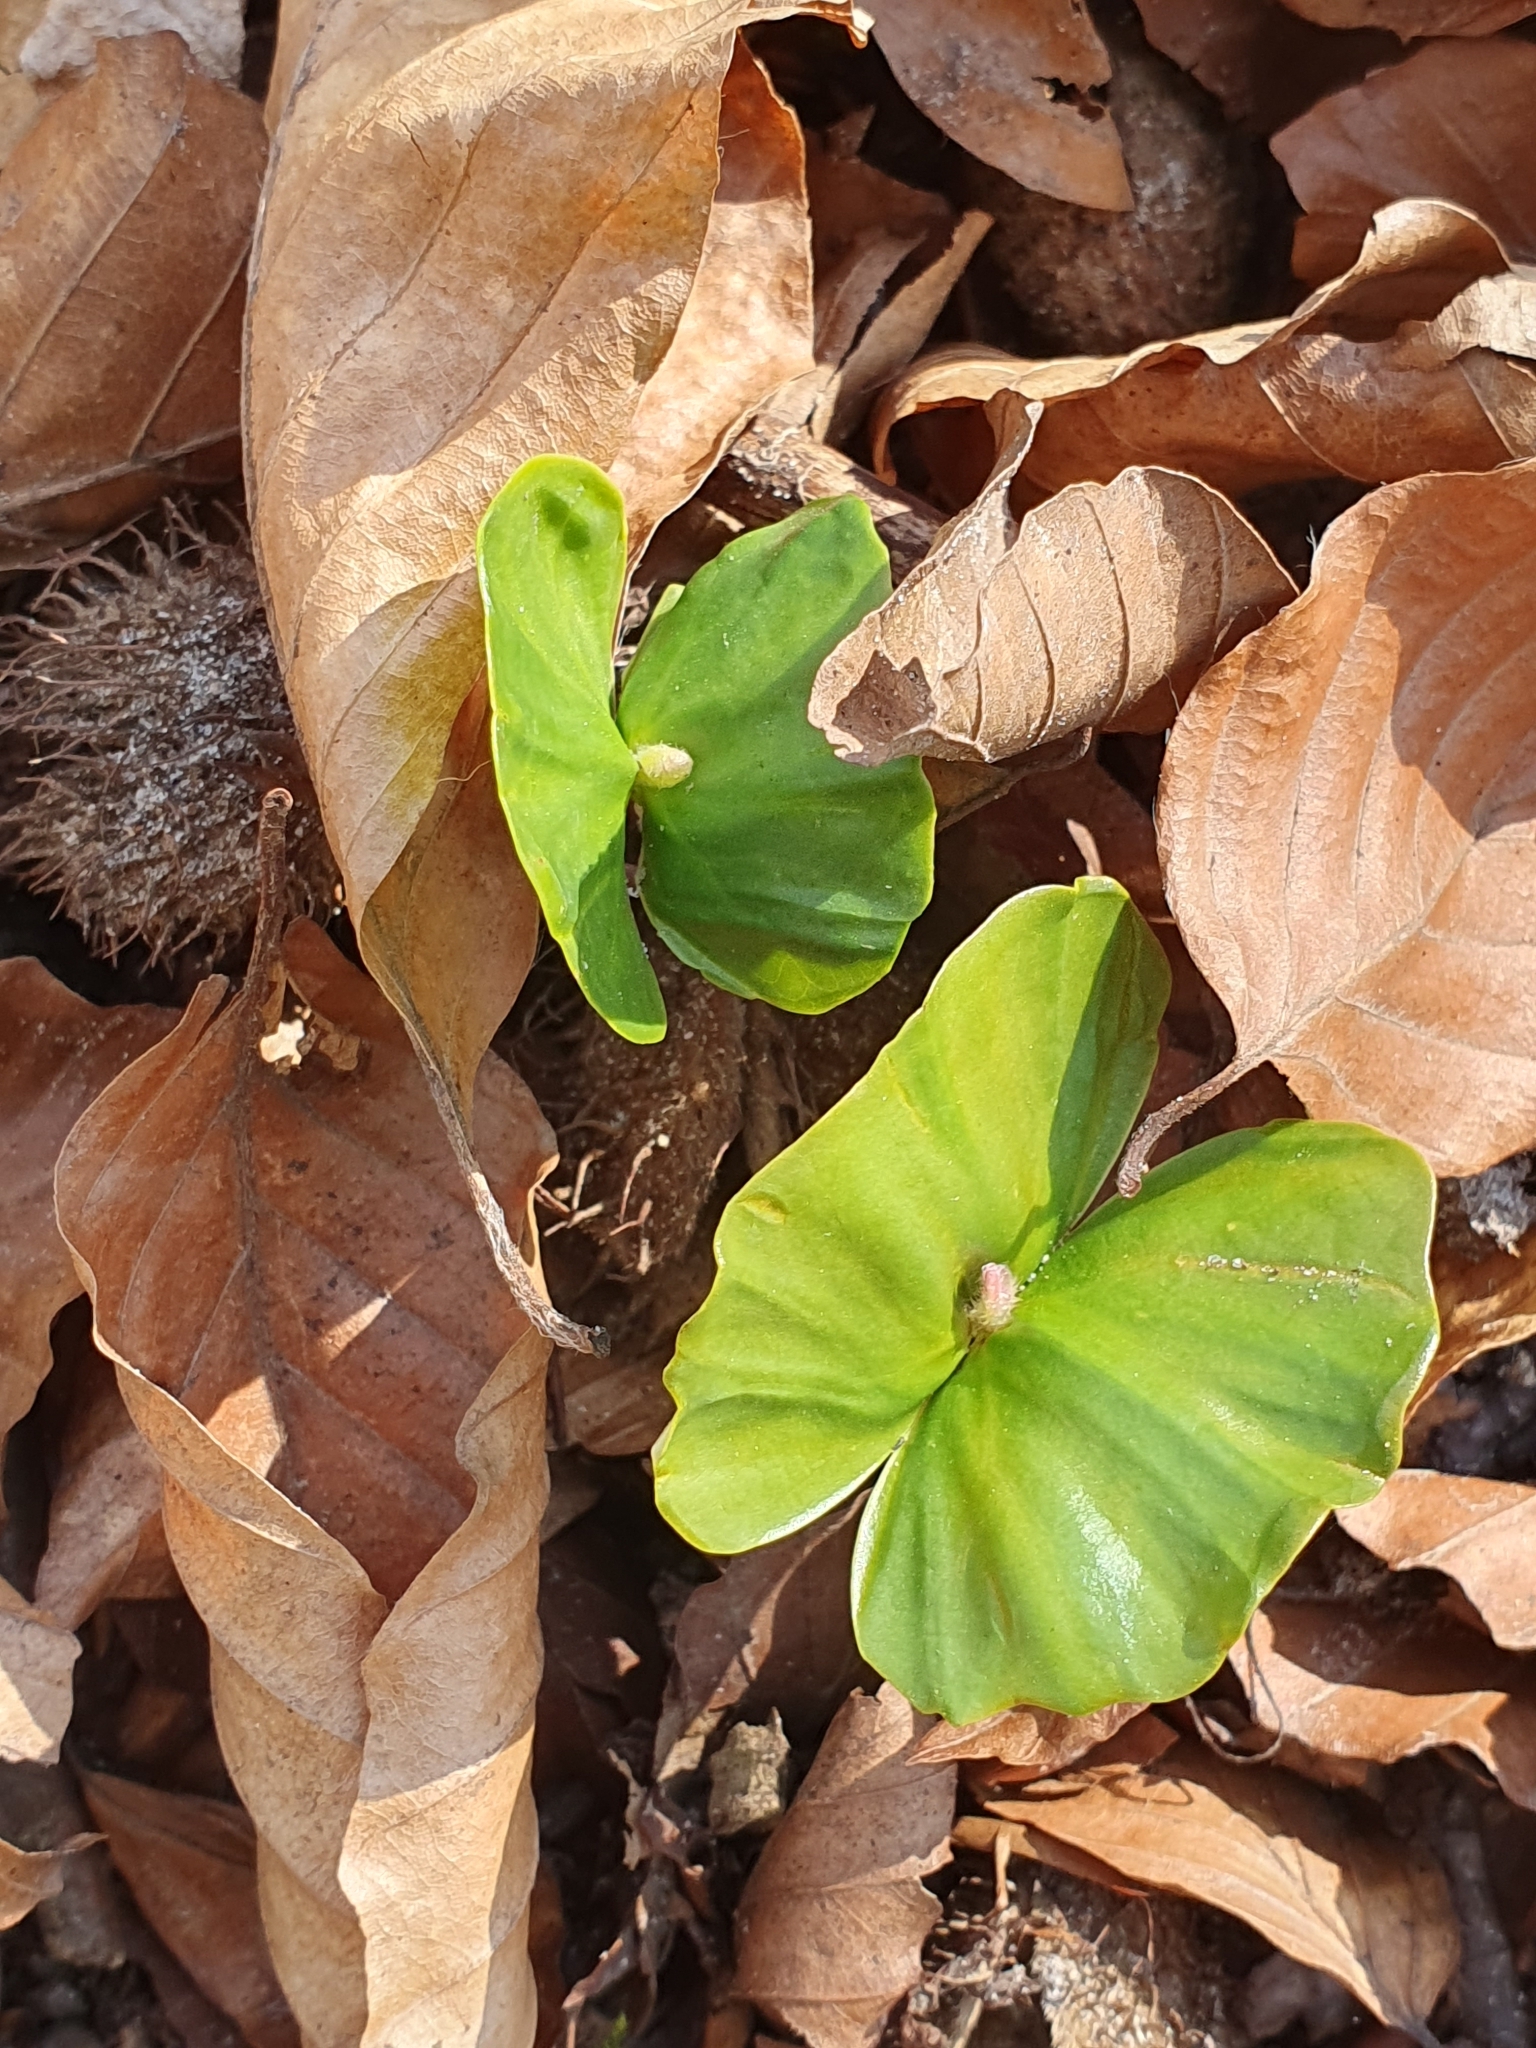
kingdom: Plantae
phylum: Tracheophyta
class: Magnoliopsida
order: Fagales
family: Fagaceae
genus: Fagus
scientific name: Fagus sylvatica
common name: Beech
